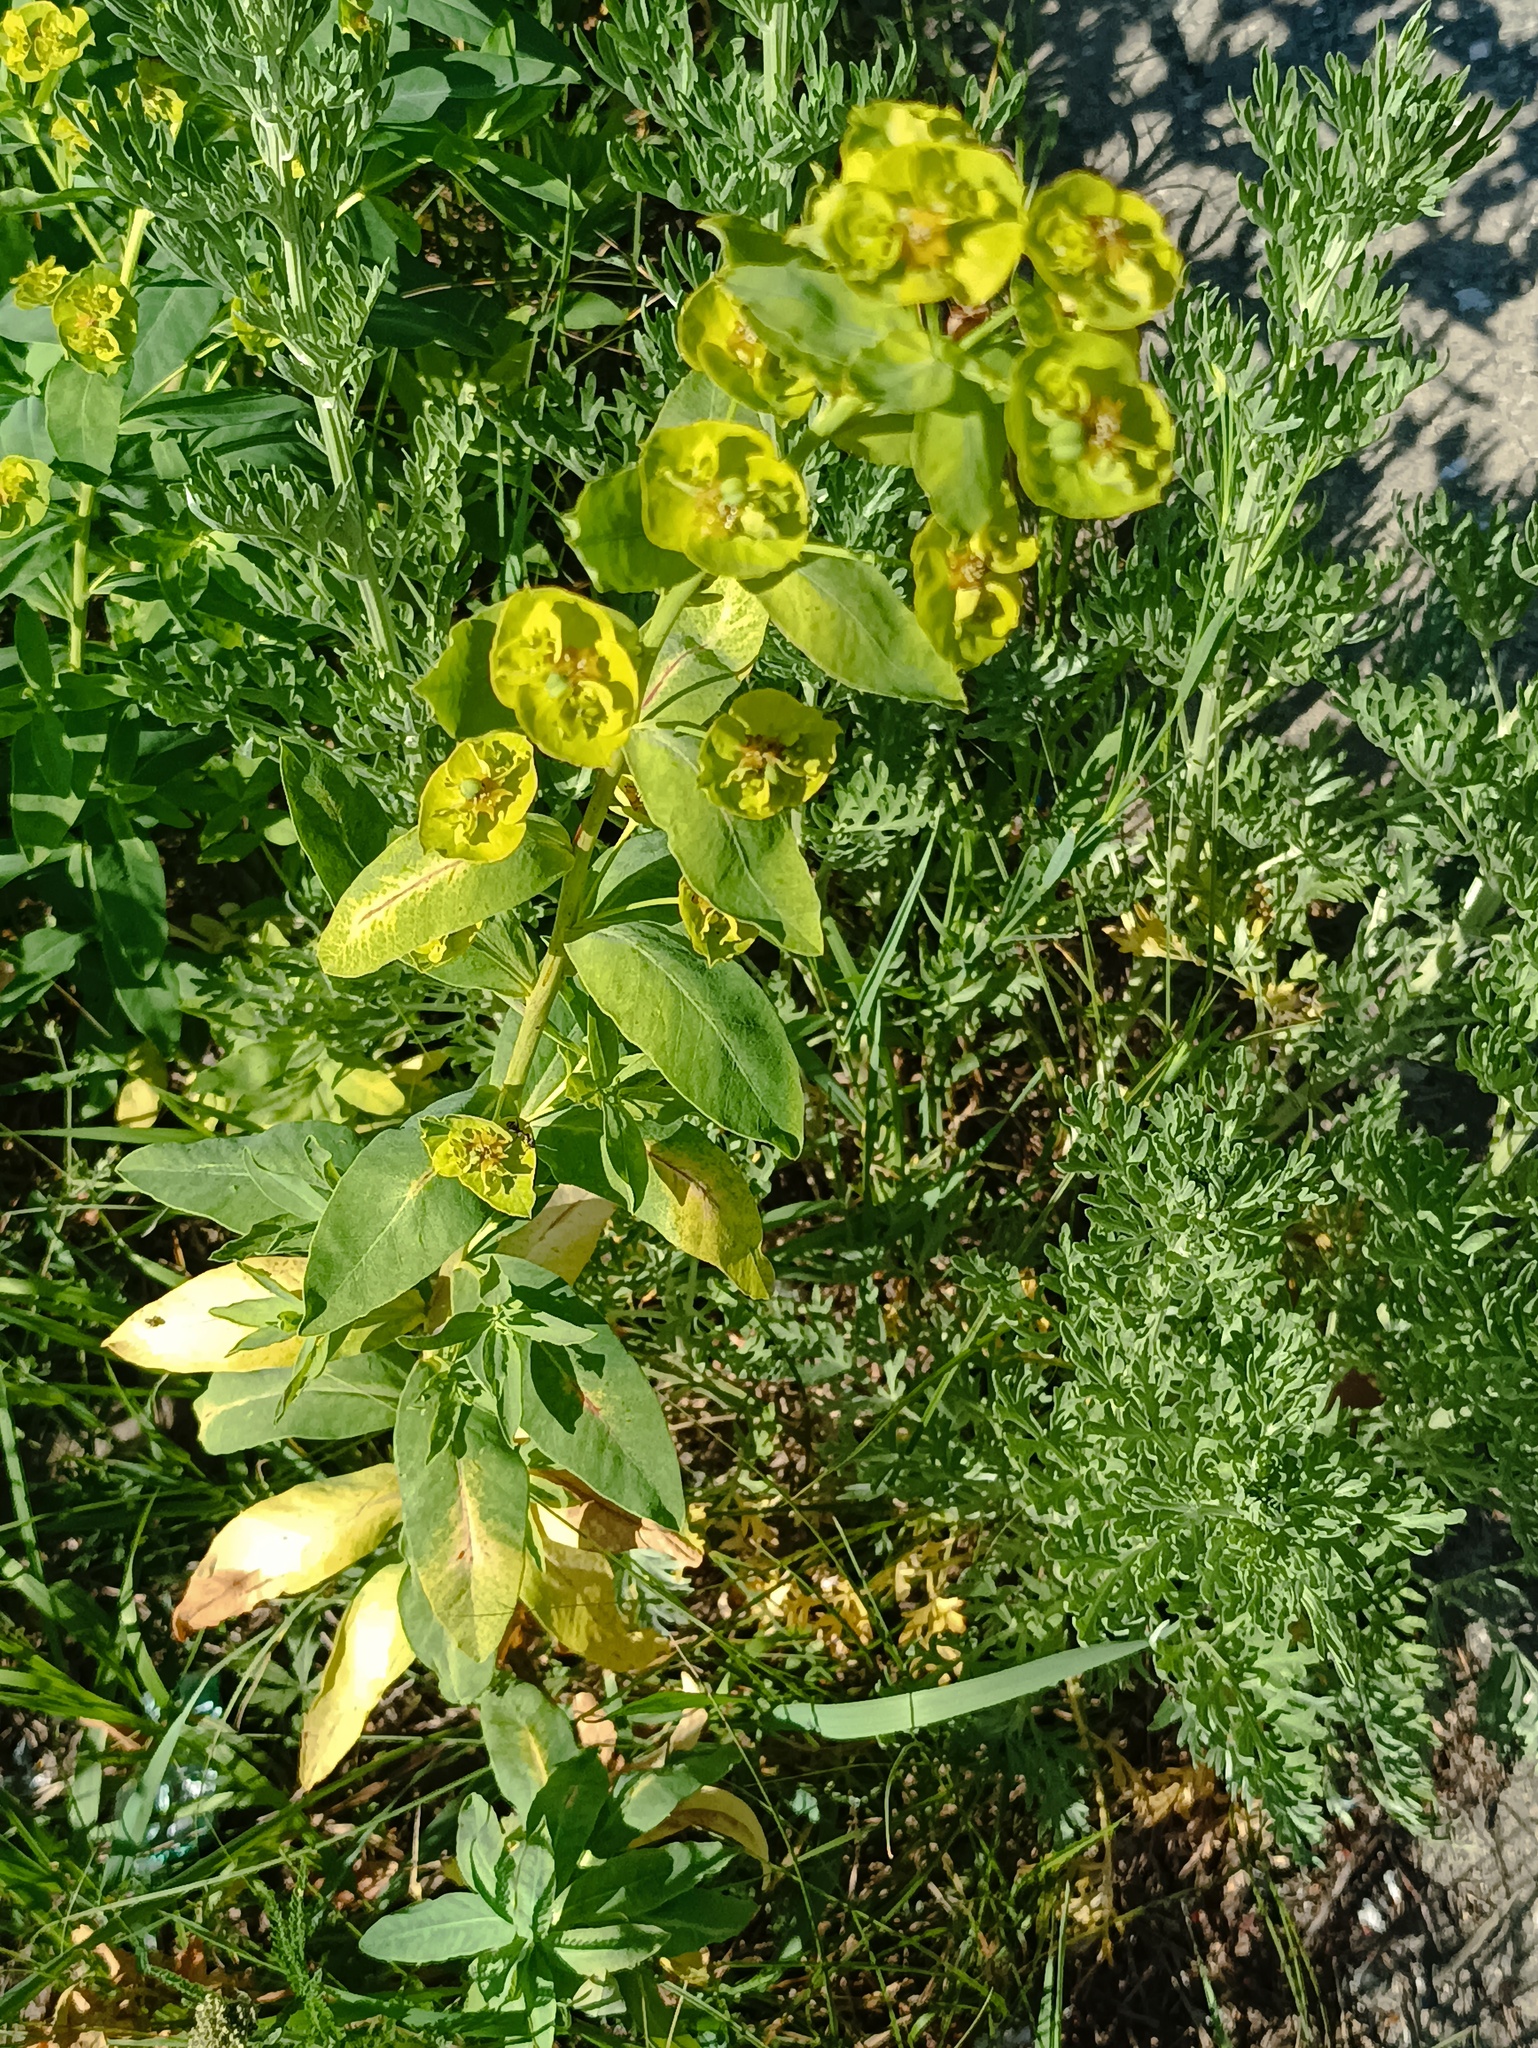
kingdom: Plantae
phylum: Tracheophyta
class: Magnoliopsida
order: Malpighiales
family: Euphorbiaceae
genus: Euphorbia
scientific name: Euphorbia virgata
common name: Leafy spurge
